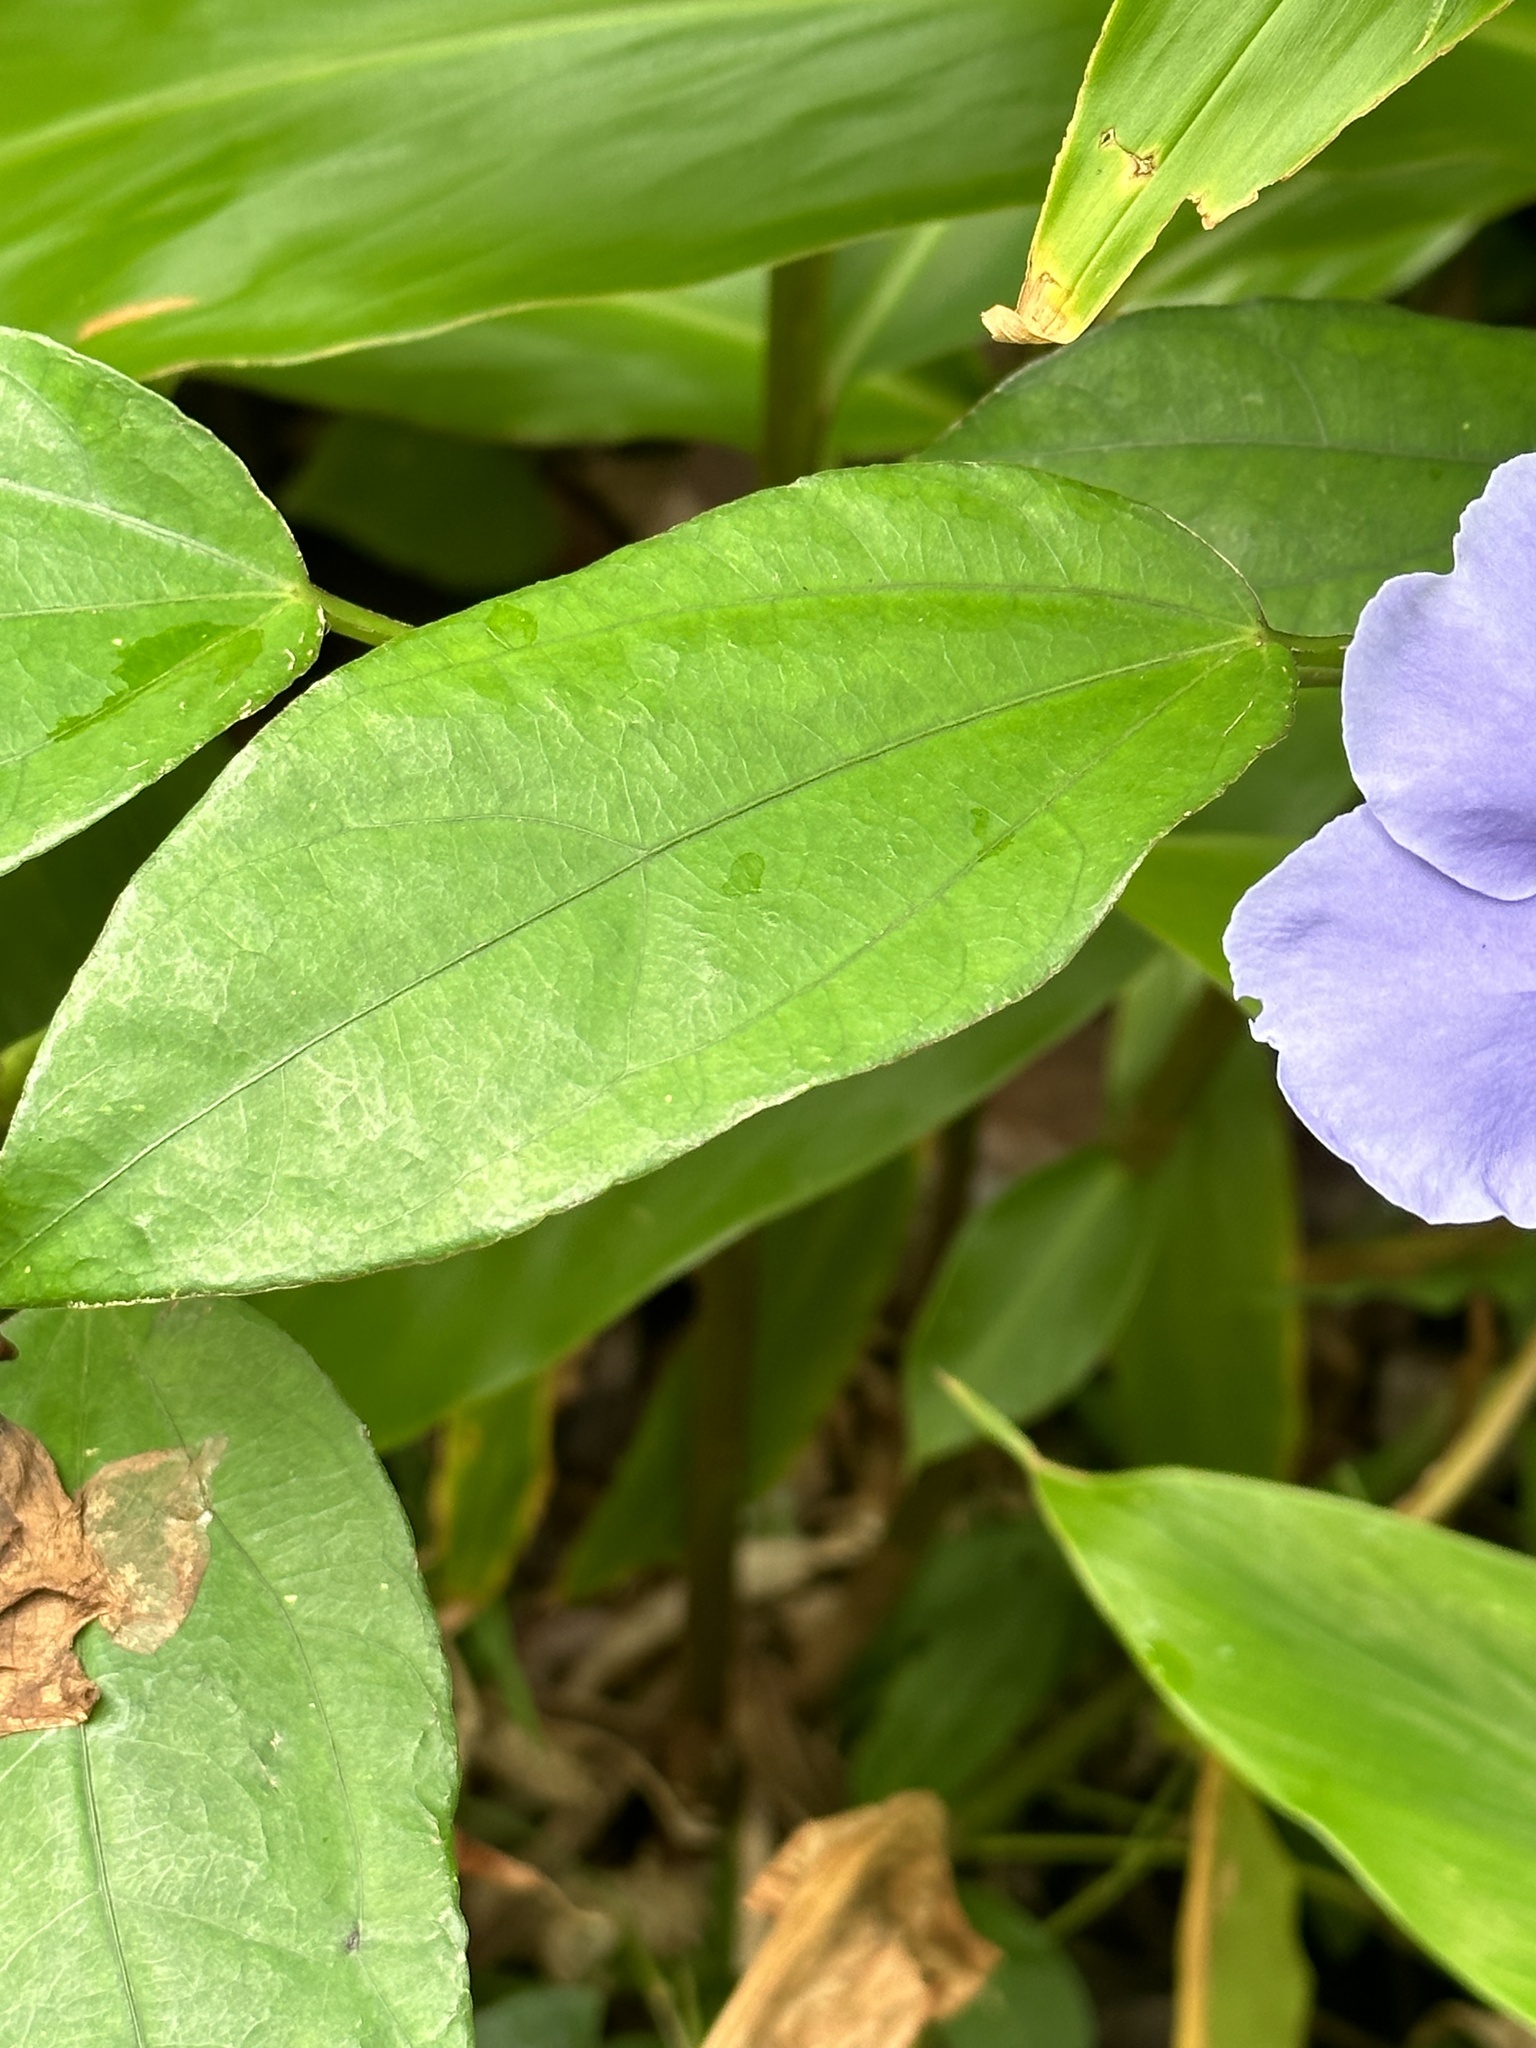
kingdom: Plantae
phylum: Tracheophyta
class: Magnoliopsida
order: Lamiales
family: Acanthaceae
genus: Thunbergia
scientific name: Thunbergia laurifolia
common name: Laurel-leaved thunbergia
